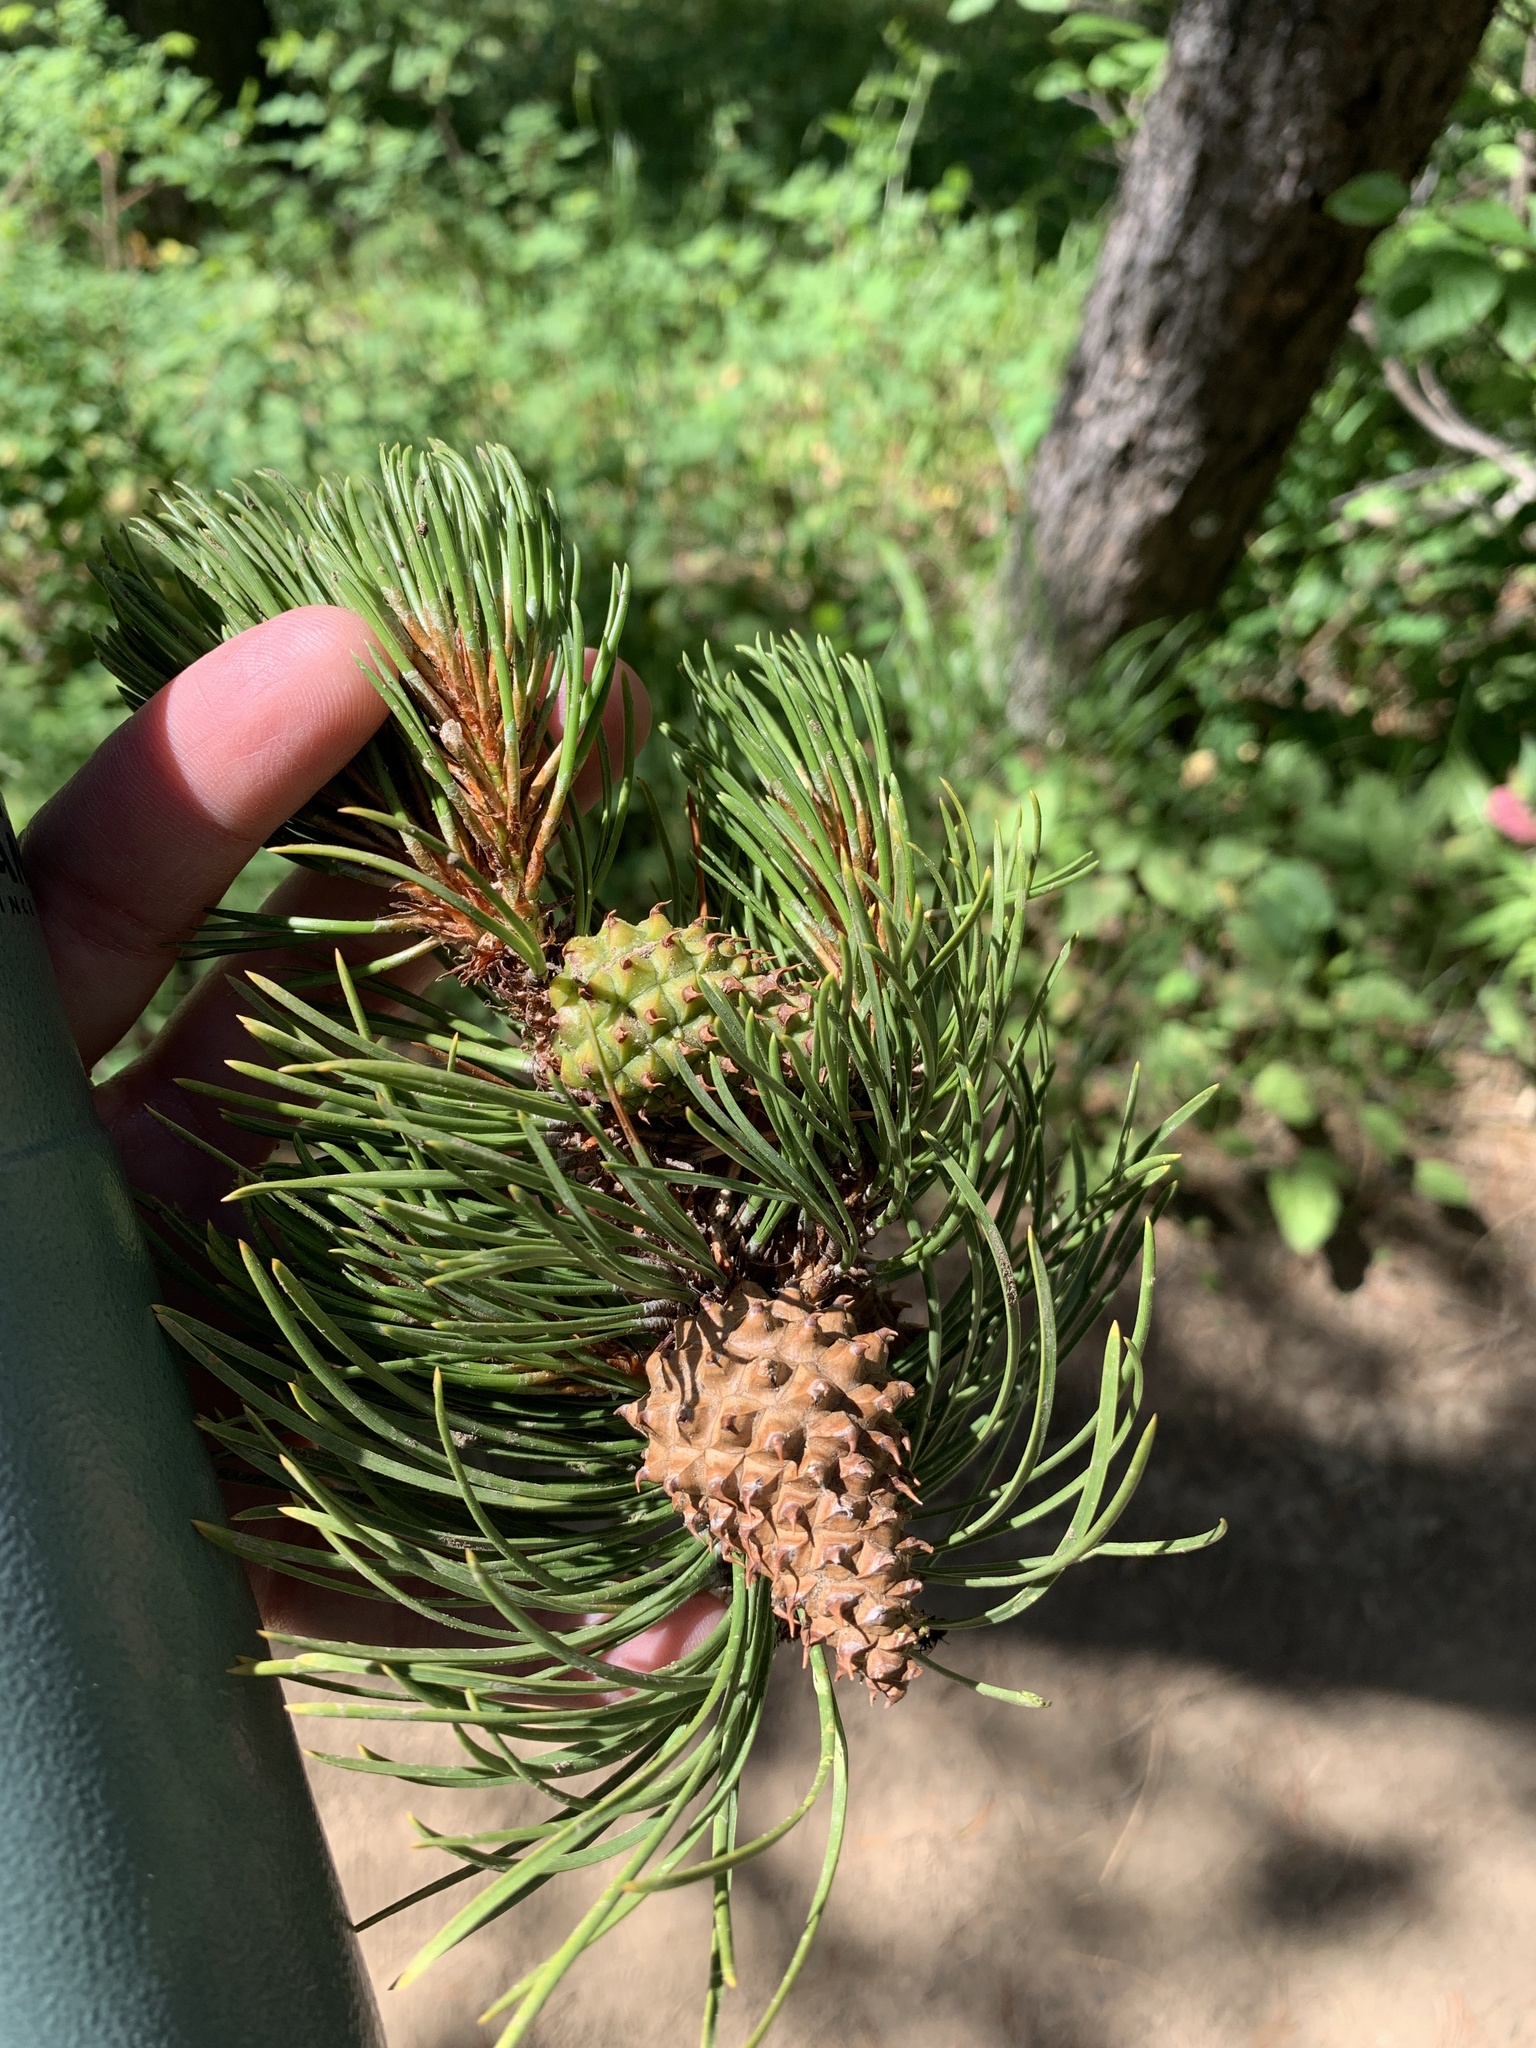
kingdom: Plantae
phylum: Tracheophyta
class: Pinopsida
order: Pinales
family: Pinaceae
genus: Pinus
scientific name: Pinus contorta
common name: Lodgepole pine
